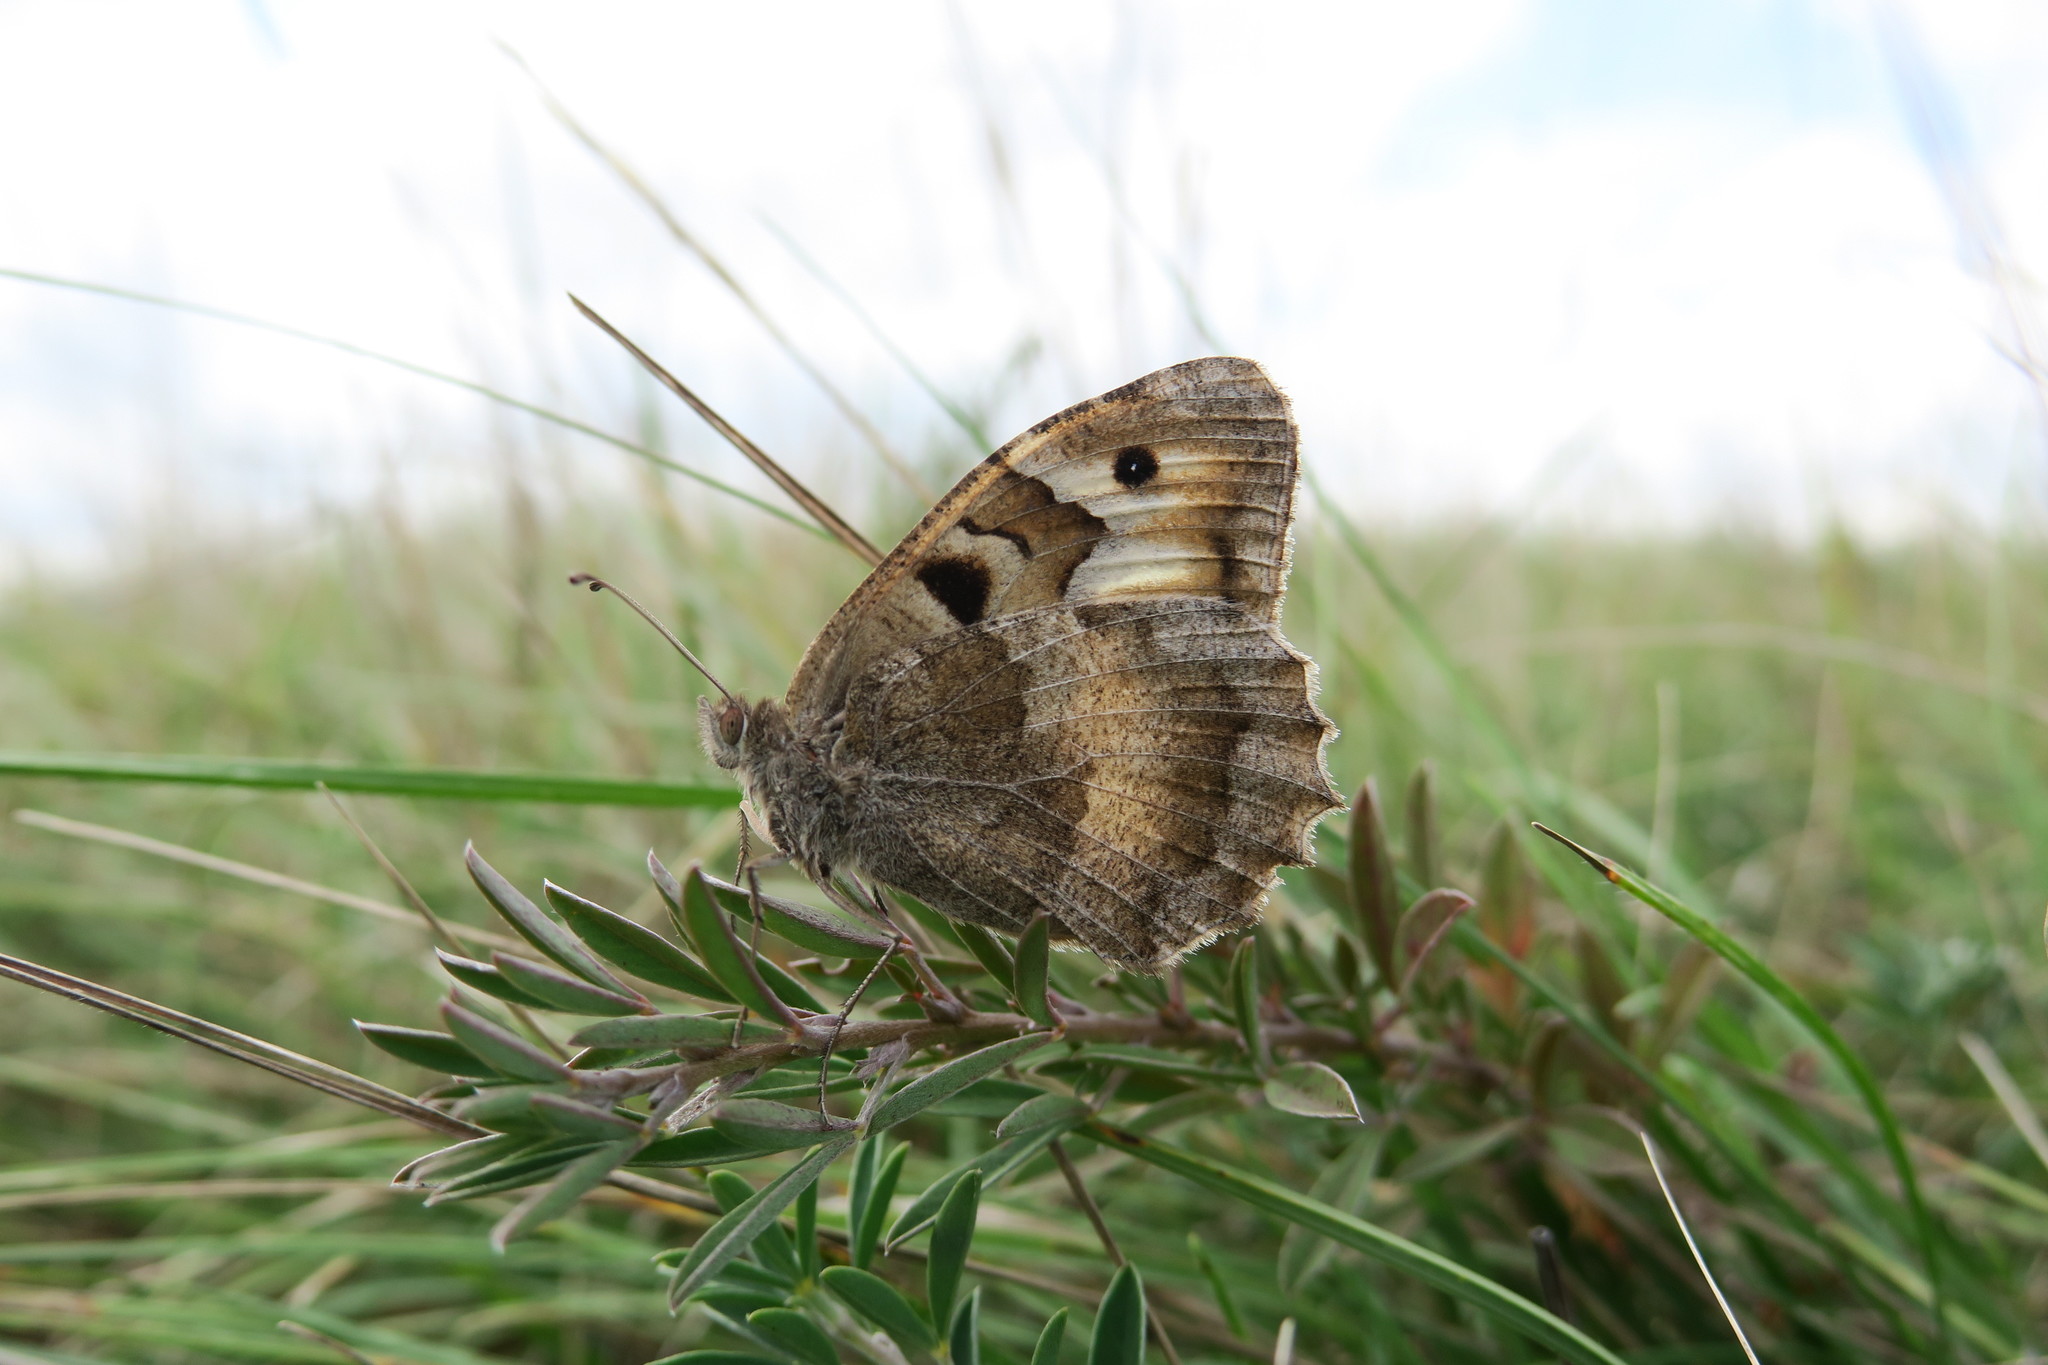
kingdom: Animalia
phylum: Arthropoda
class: Insecta
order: Lepidoptera
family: Nymphalidae
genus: Satyrus
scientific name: Satyrus briseis
